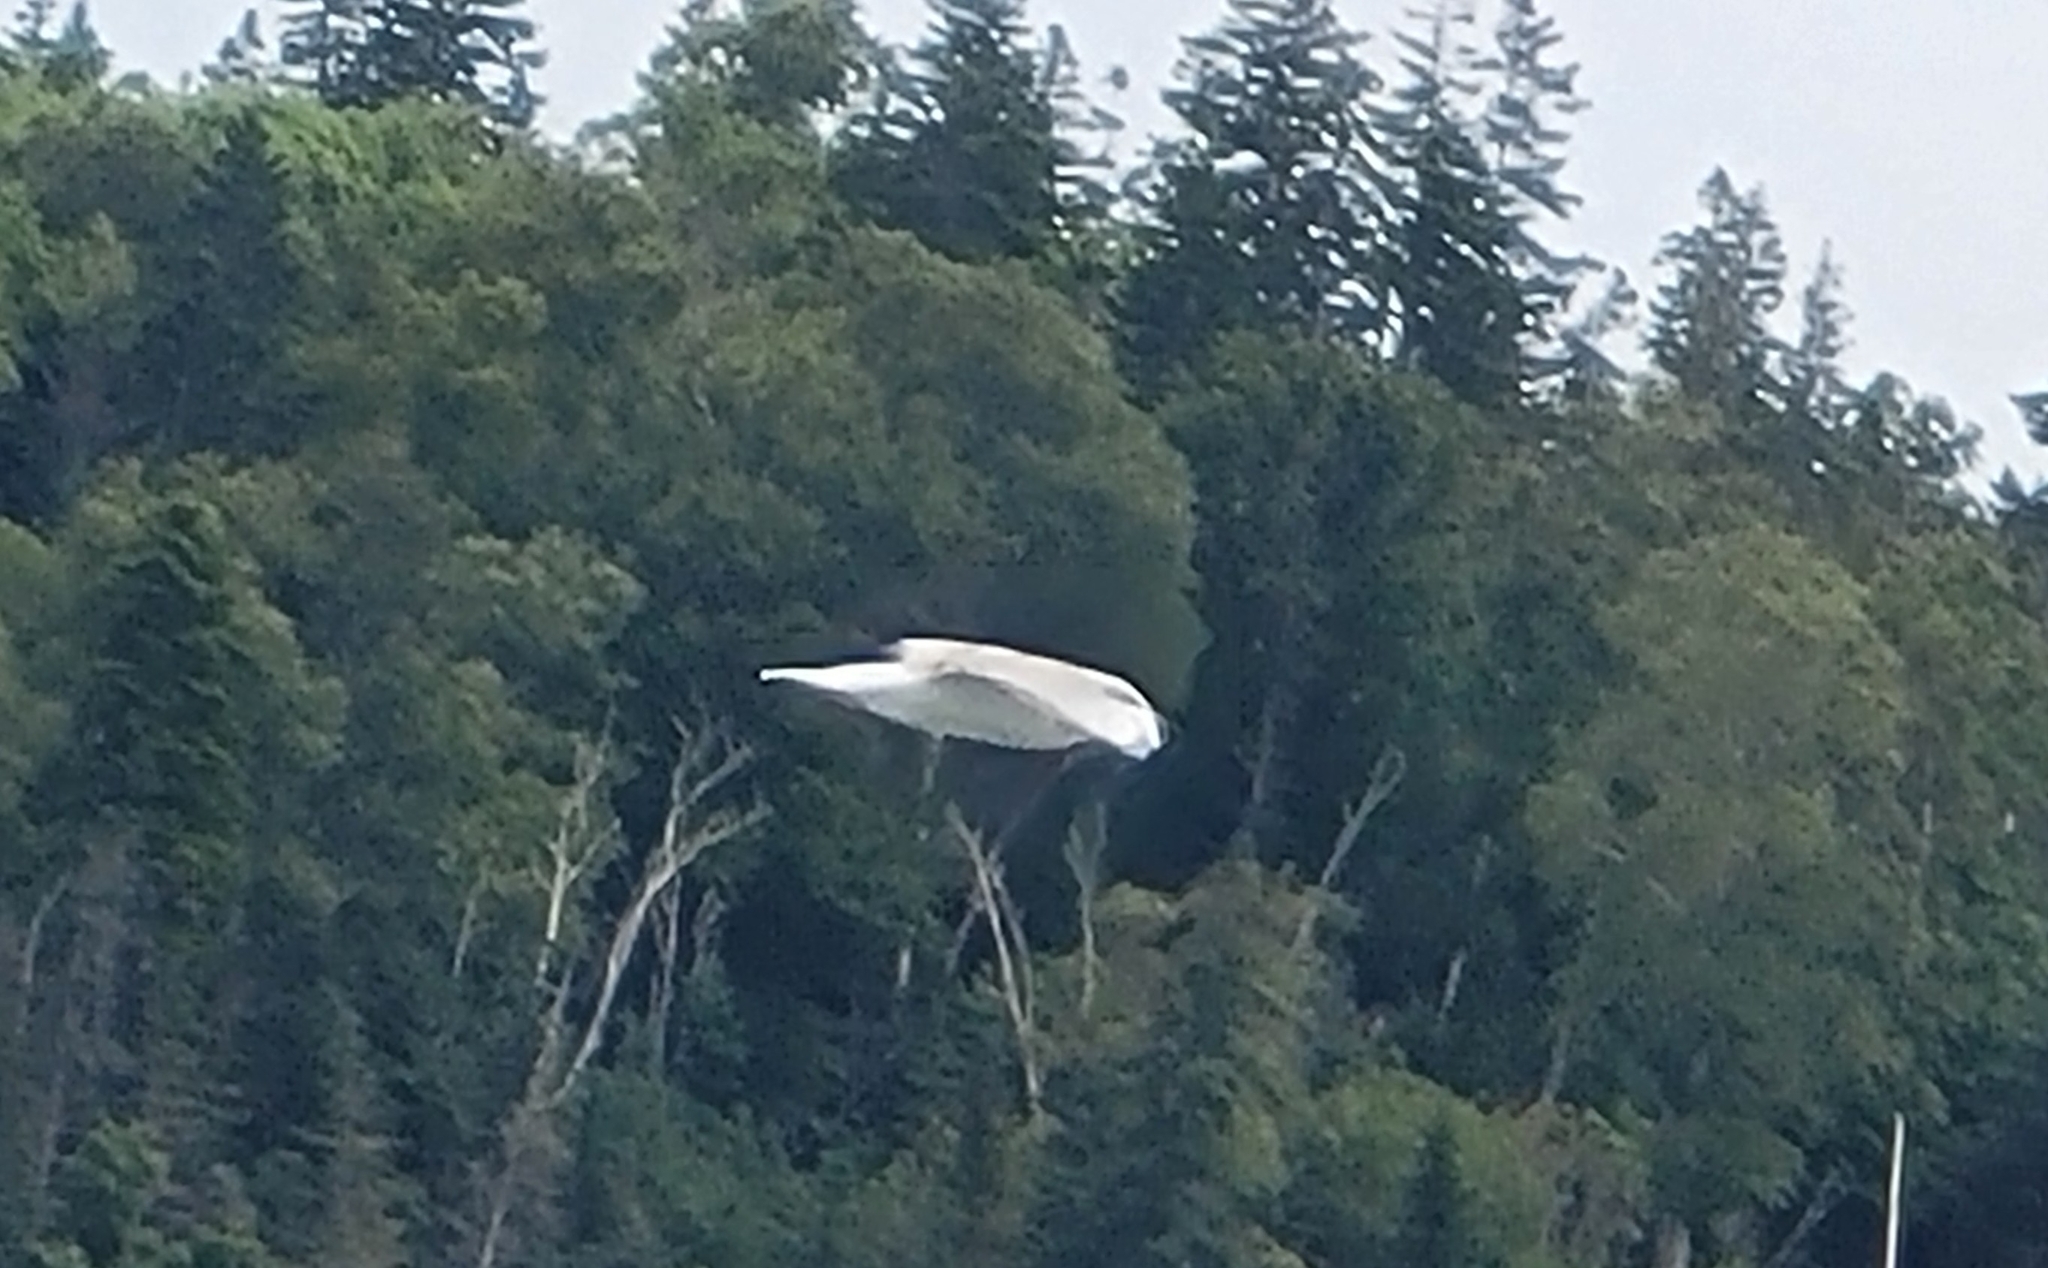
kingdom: Animalia
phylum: Chordata
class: Aves
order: Charadriiformes
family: Laridae
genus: Chroicocephalus
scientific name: Chroicocephalus philadelphia
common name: Bonaparte's gull
